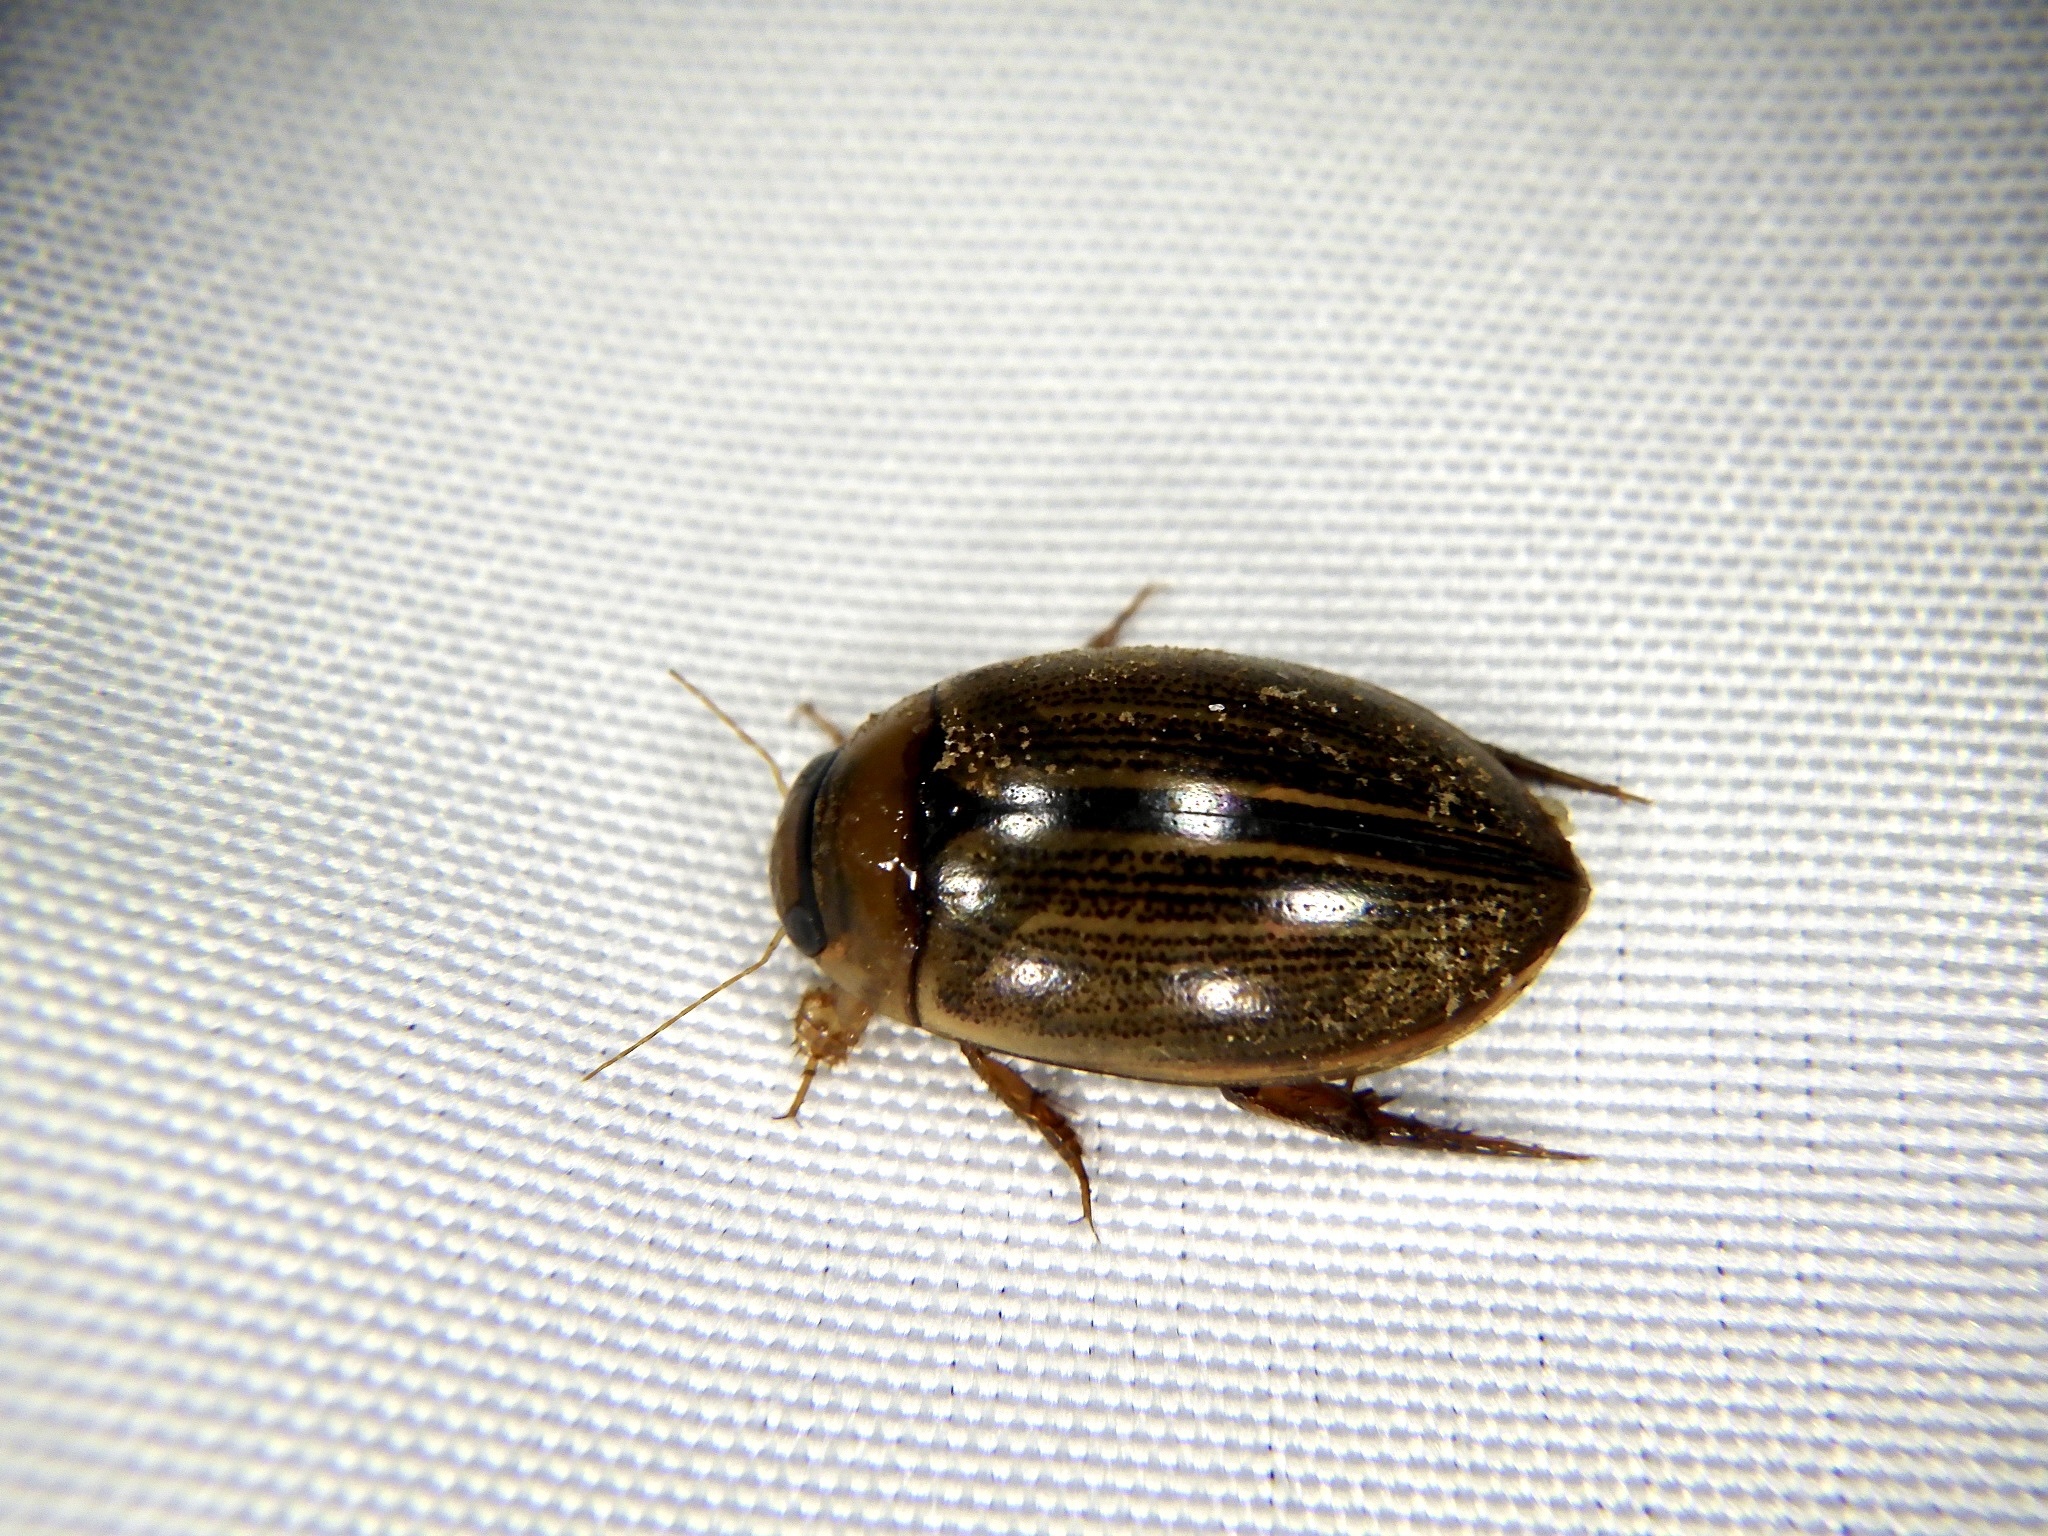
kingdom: Animalia
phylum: Arthropoda
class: Insecta
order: Coleoptera
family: Dytiscidae
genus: Hydaticus
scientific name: Hydaticus grammicus
